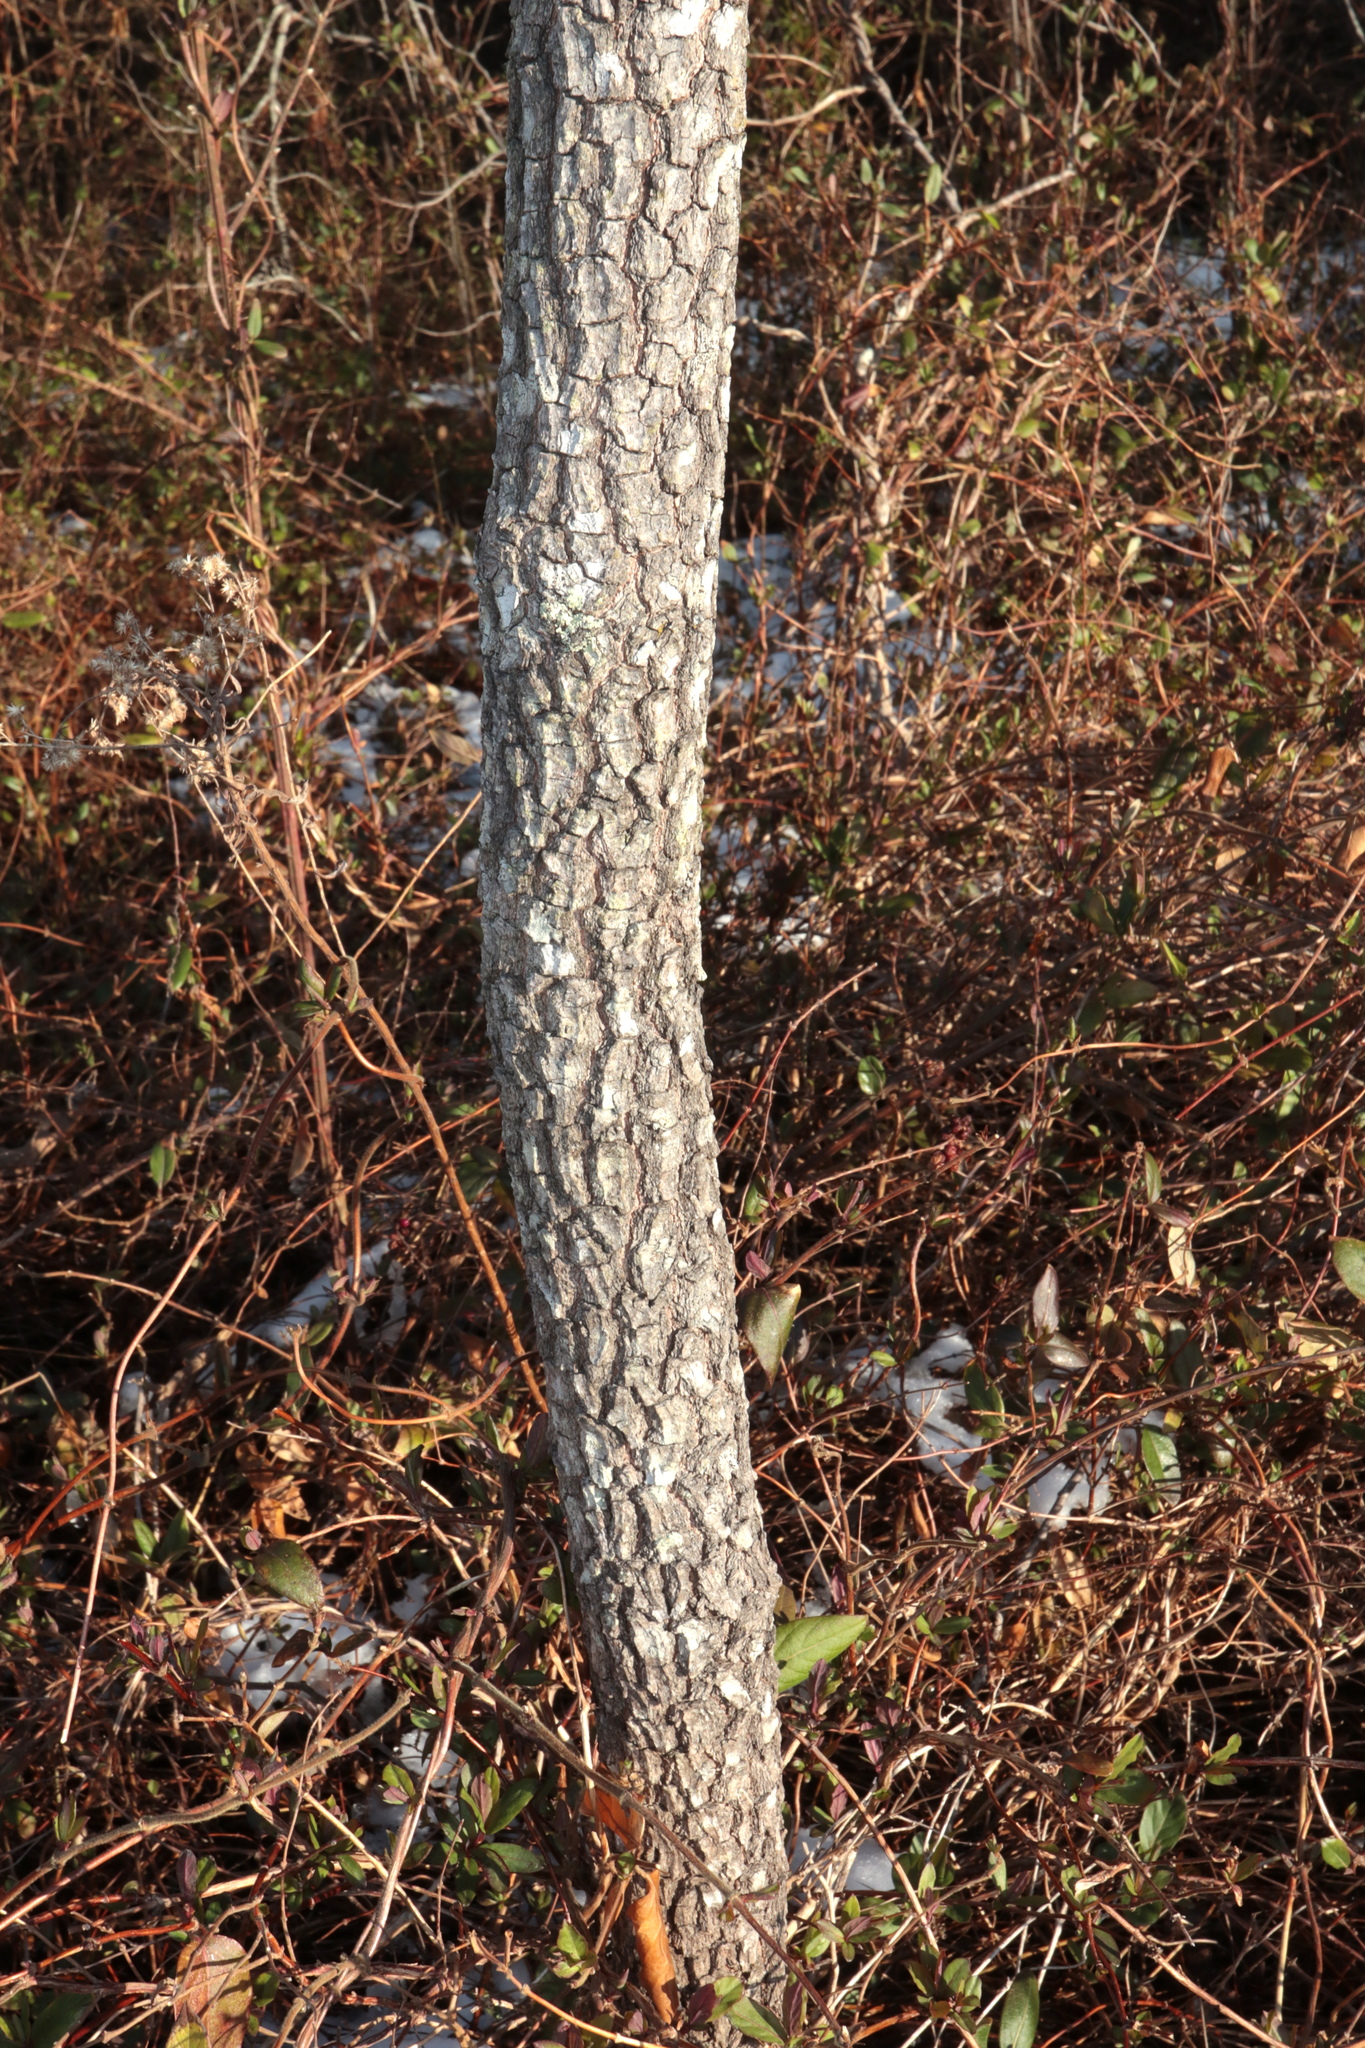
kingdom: Plantae
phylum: Tracheophyta
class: Magnoliopsida
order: Ericales
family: Ebenaceae
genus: Diospyros
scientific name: Diospyros virginiana
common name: Persimmon
